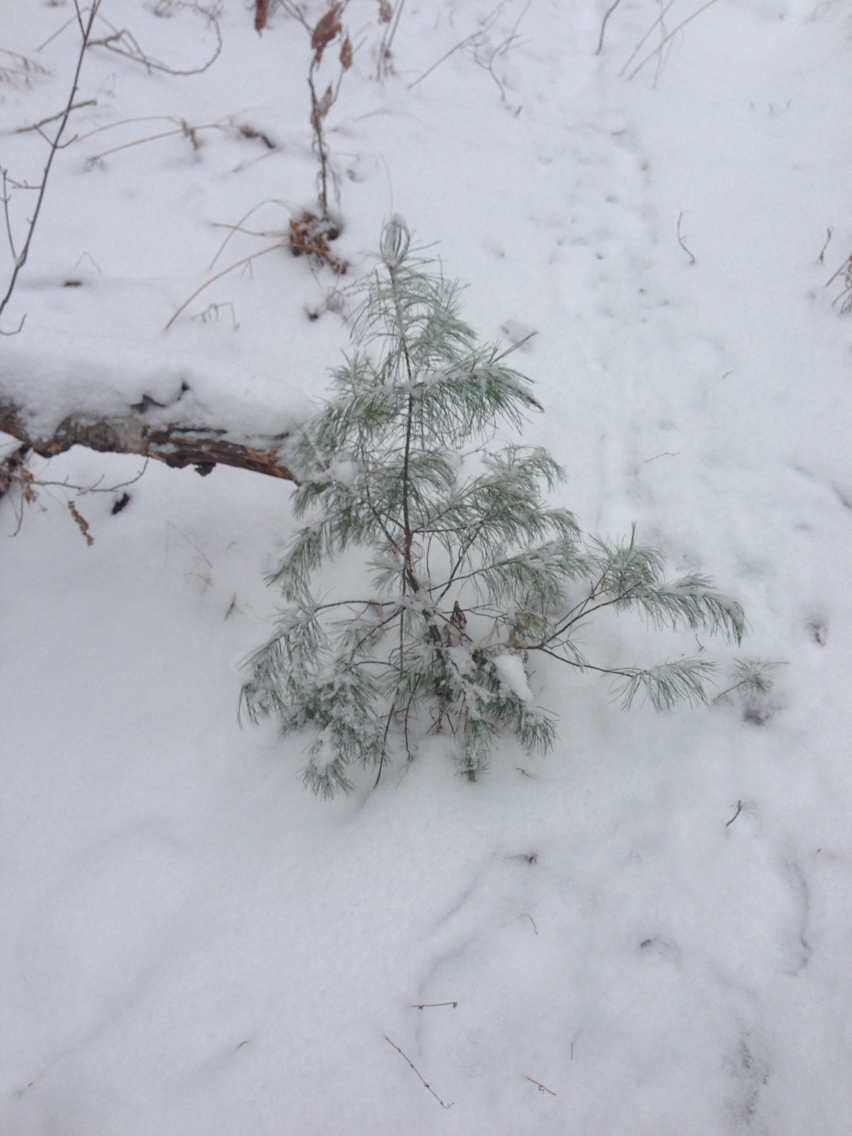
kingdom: Plantae
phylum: Tracheophyta
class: Pinopsida
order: Pinales
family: Pinaceae
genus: Pinus
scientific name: Pinus strobus
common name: Weymouth pine
